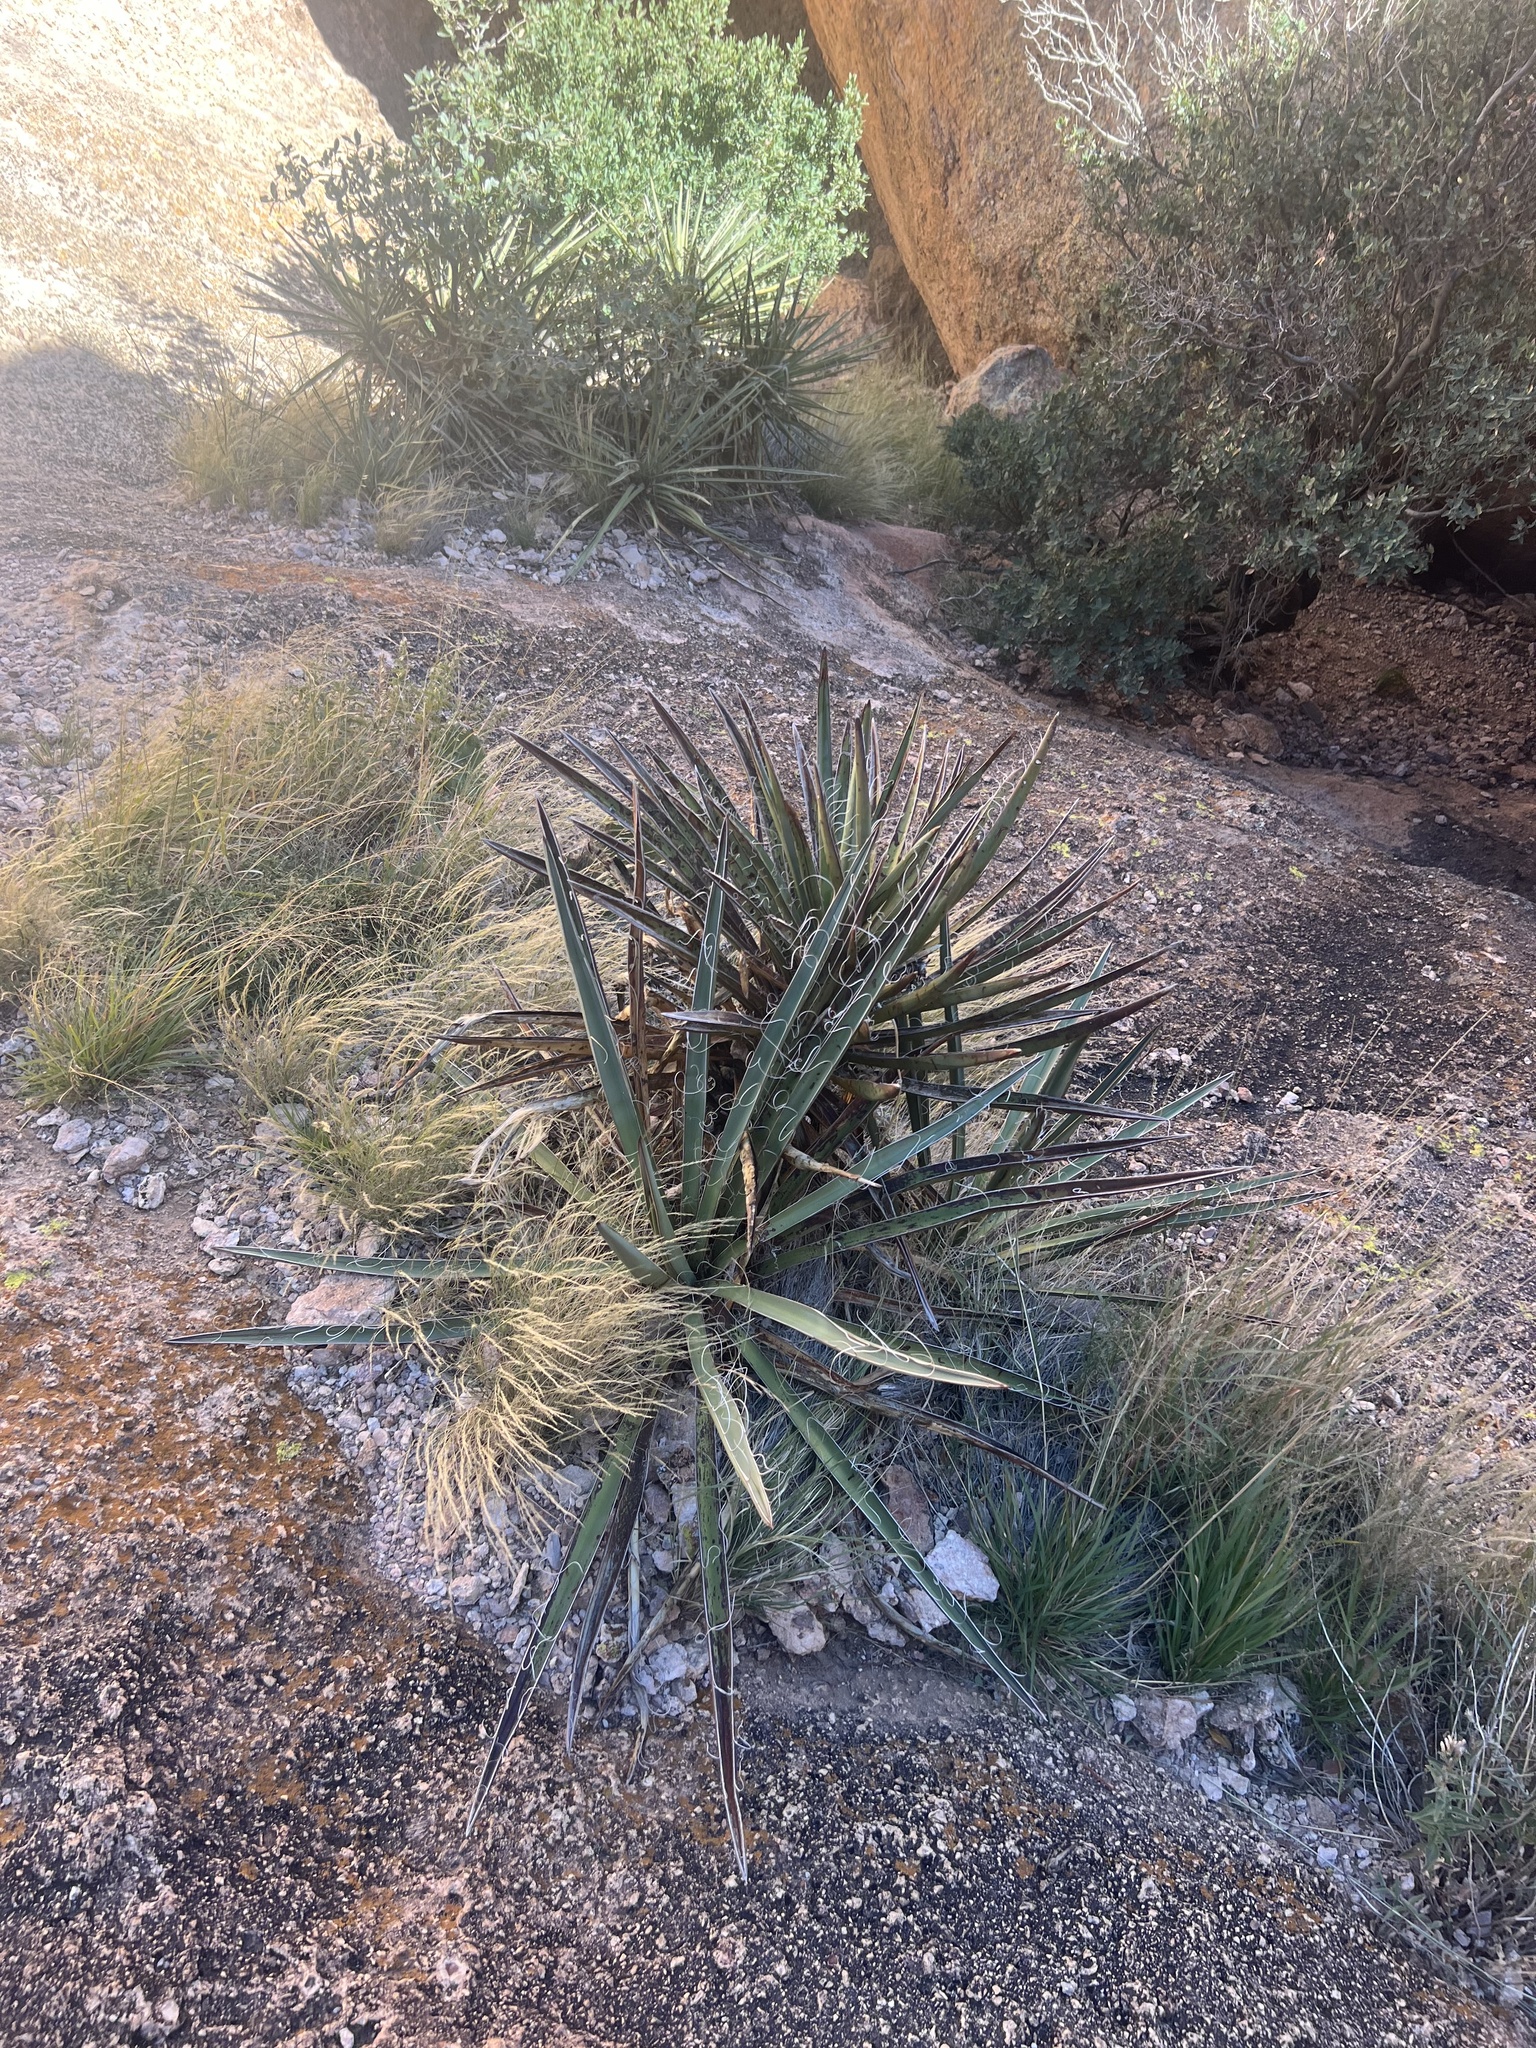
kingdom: Plantae
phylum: Tracheophyta
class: Liliopsida
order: Asparagales
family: Asparagaceae
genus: Yucca
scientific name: Yucca baccata
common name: Banana yucca
